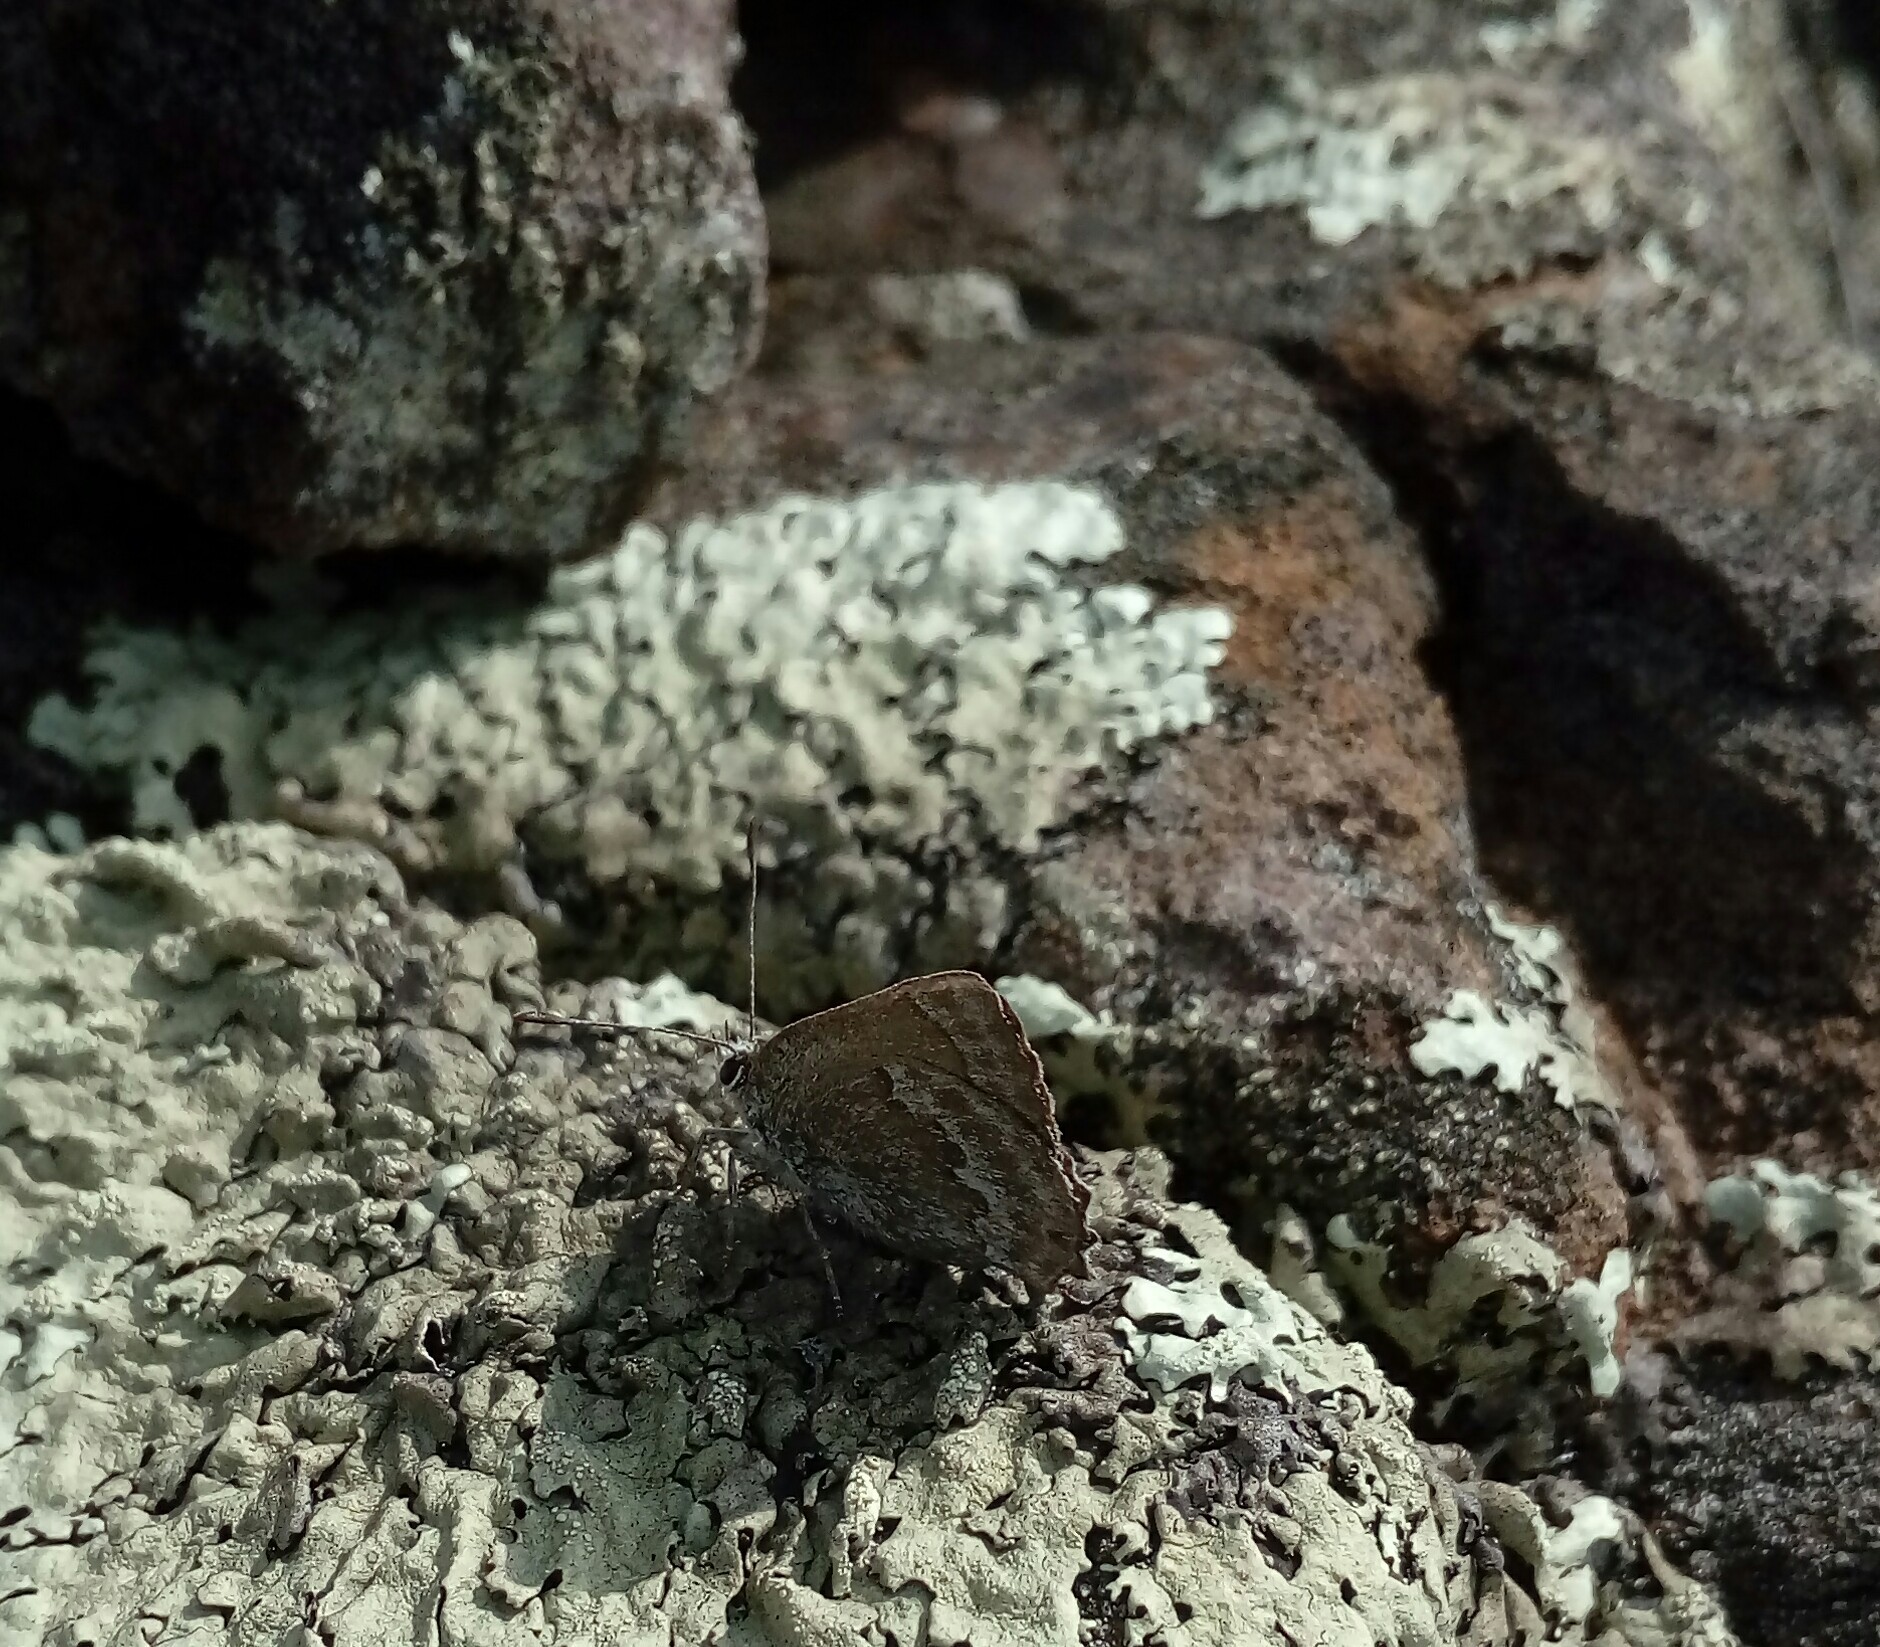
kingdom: Animalia
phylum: Arthropoda
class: Insecta
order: Lepidoptera
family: Lycaenidae
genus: Strymon
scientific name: Strymon
